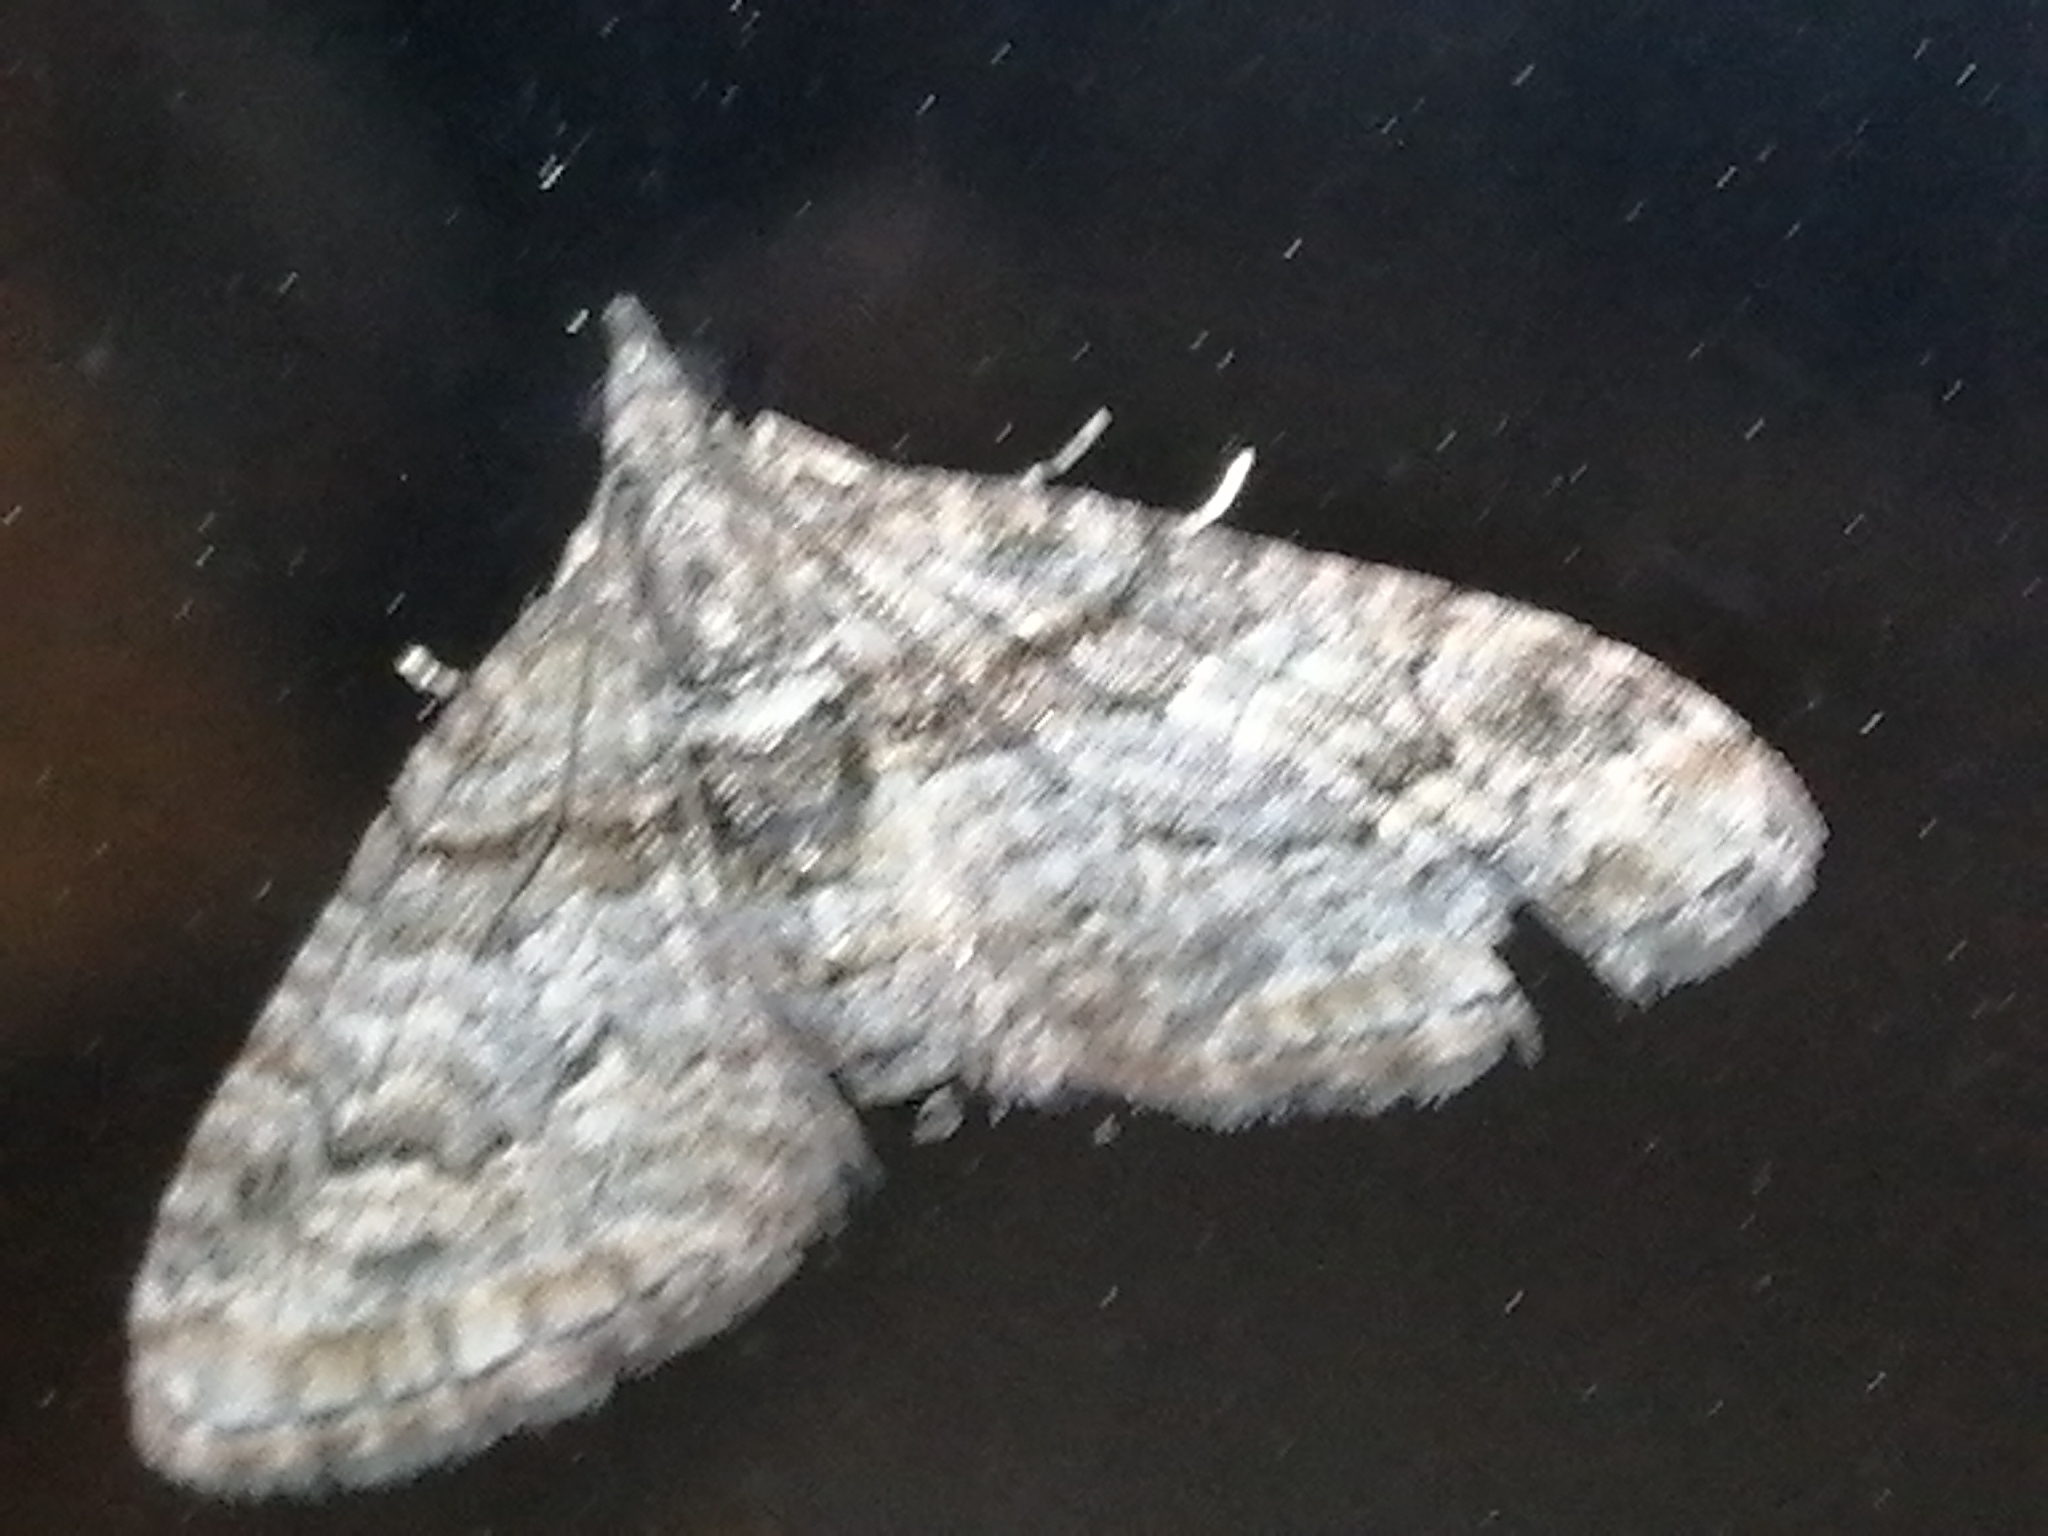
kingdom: Animalia
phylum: Arthropoda
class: Insecta
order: Lepidoptera
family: Geometridae
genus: Phrissogonus
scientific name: Phrissogonus laticostata
